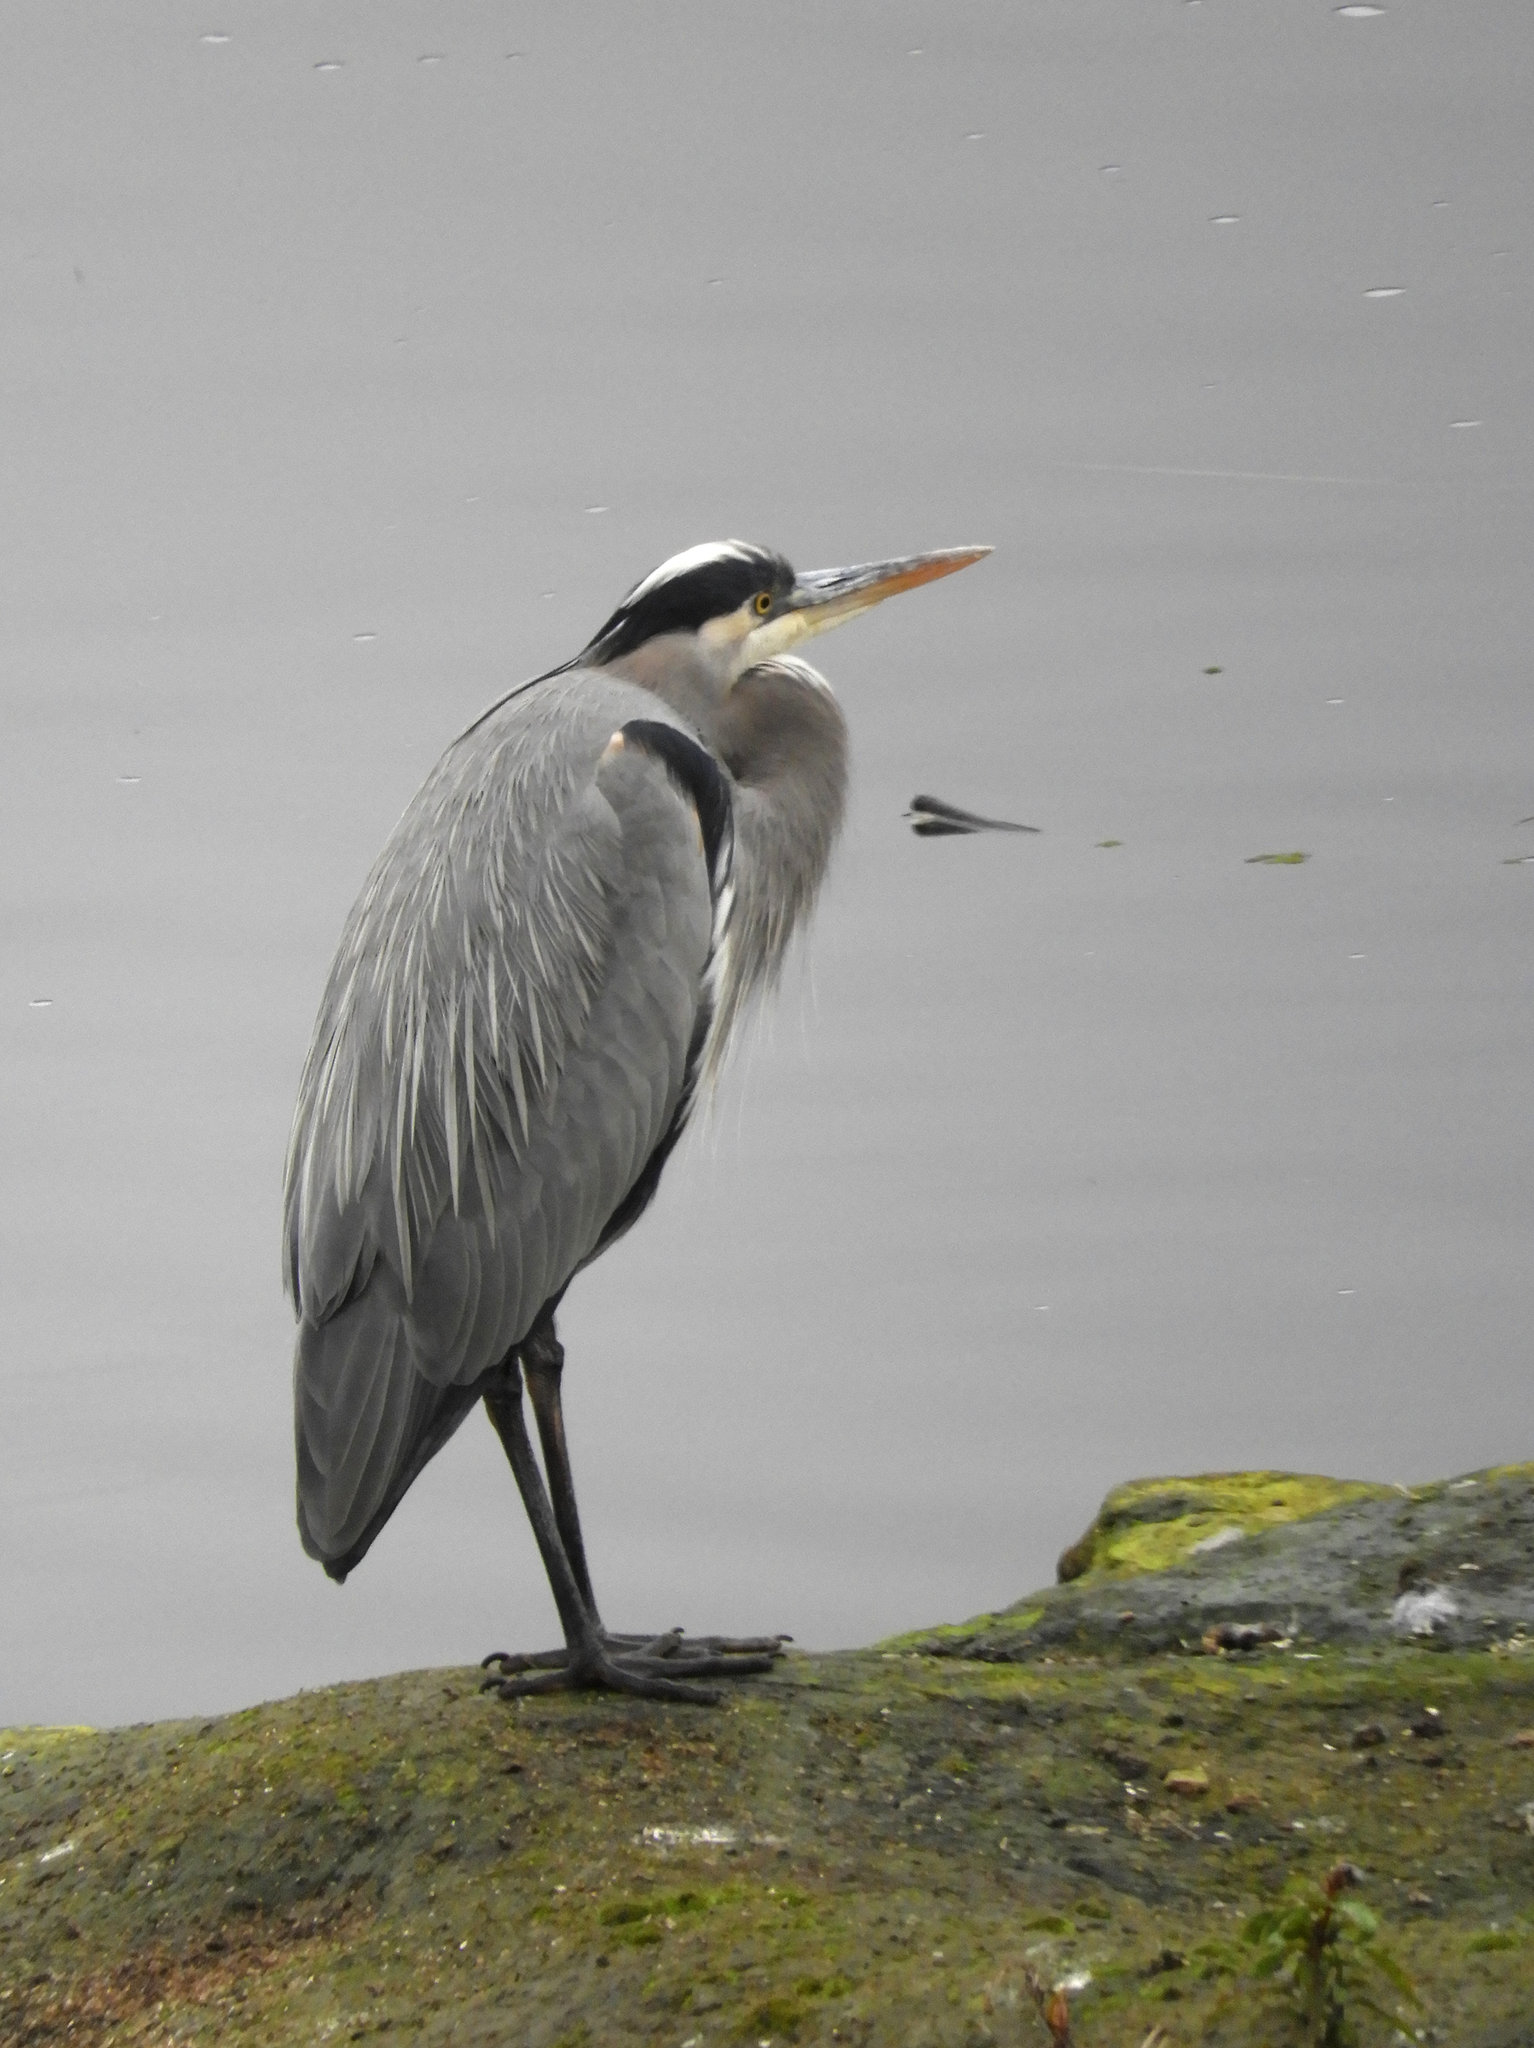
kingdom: Animalia
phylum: Chordata
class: Aves
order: Pelecaniformes
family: Ardeidae
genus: Ardea
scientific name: Ardea herodias
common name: Great blue heron
